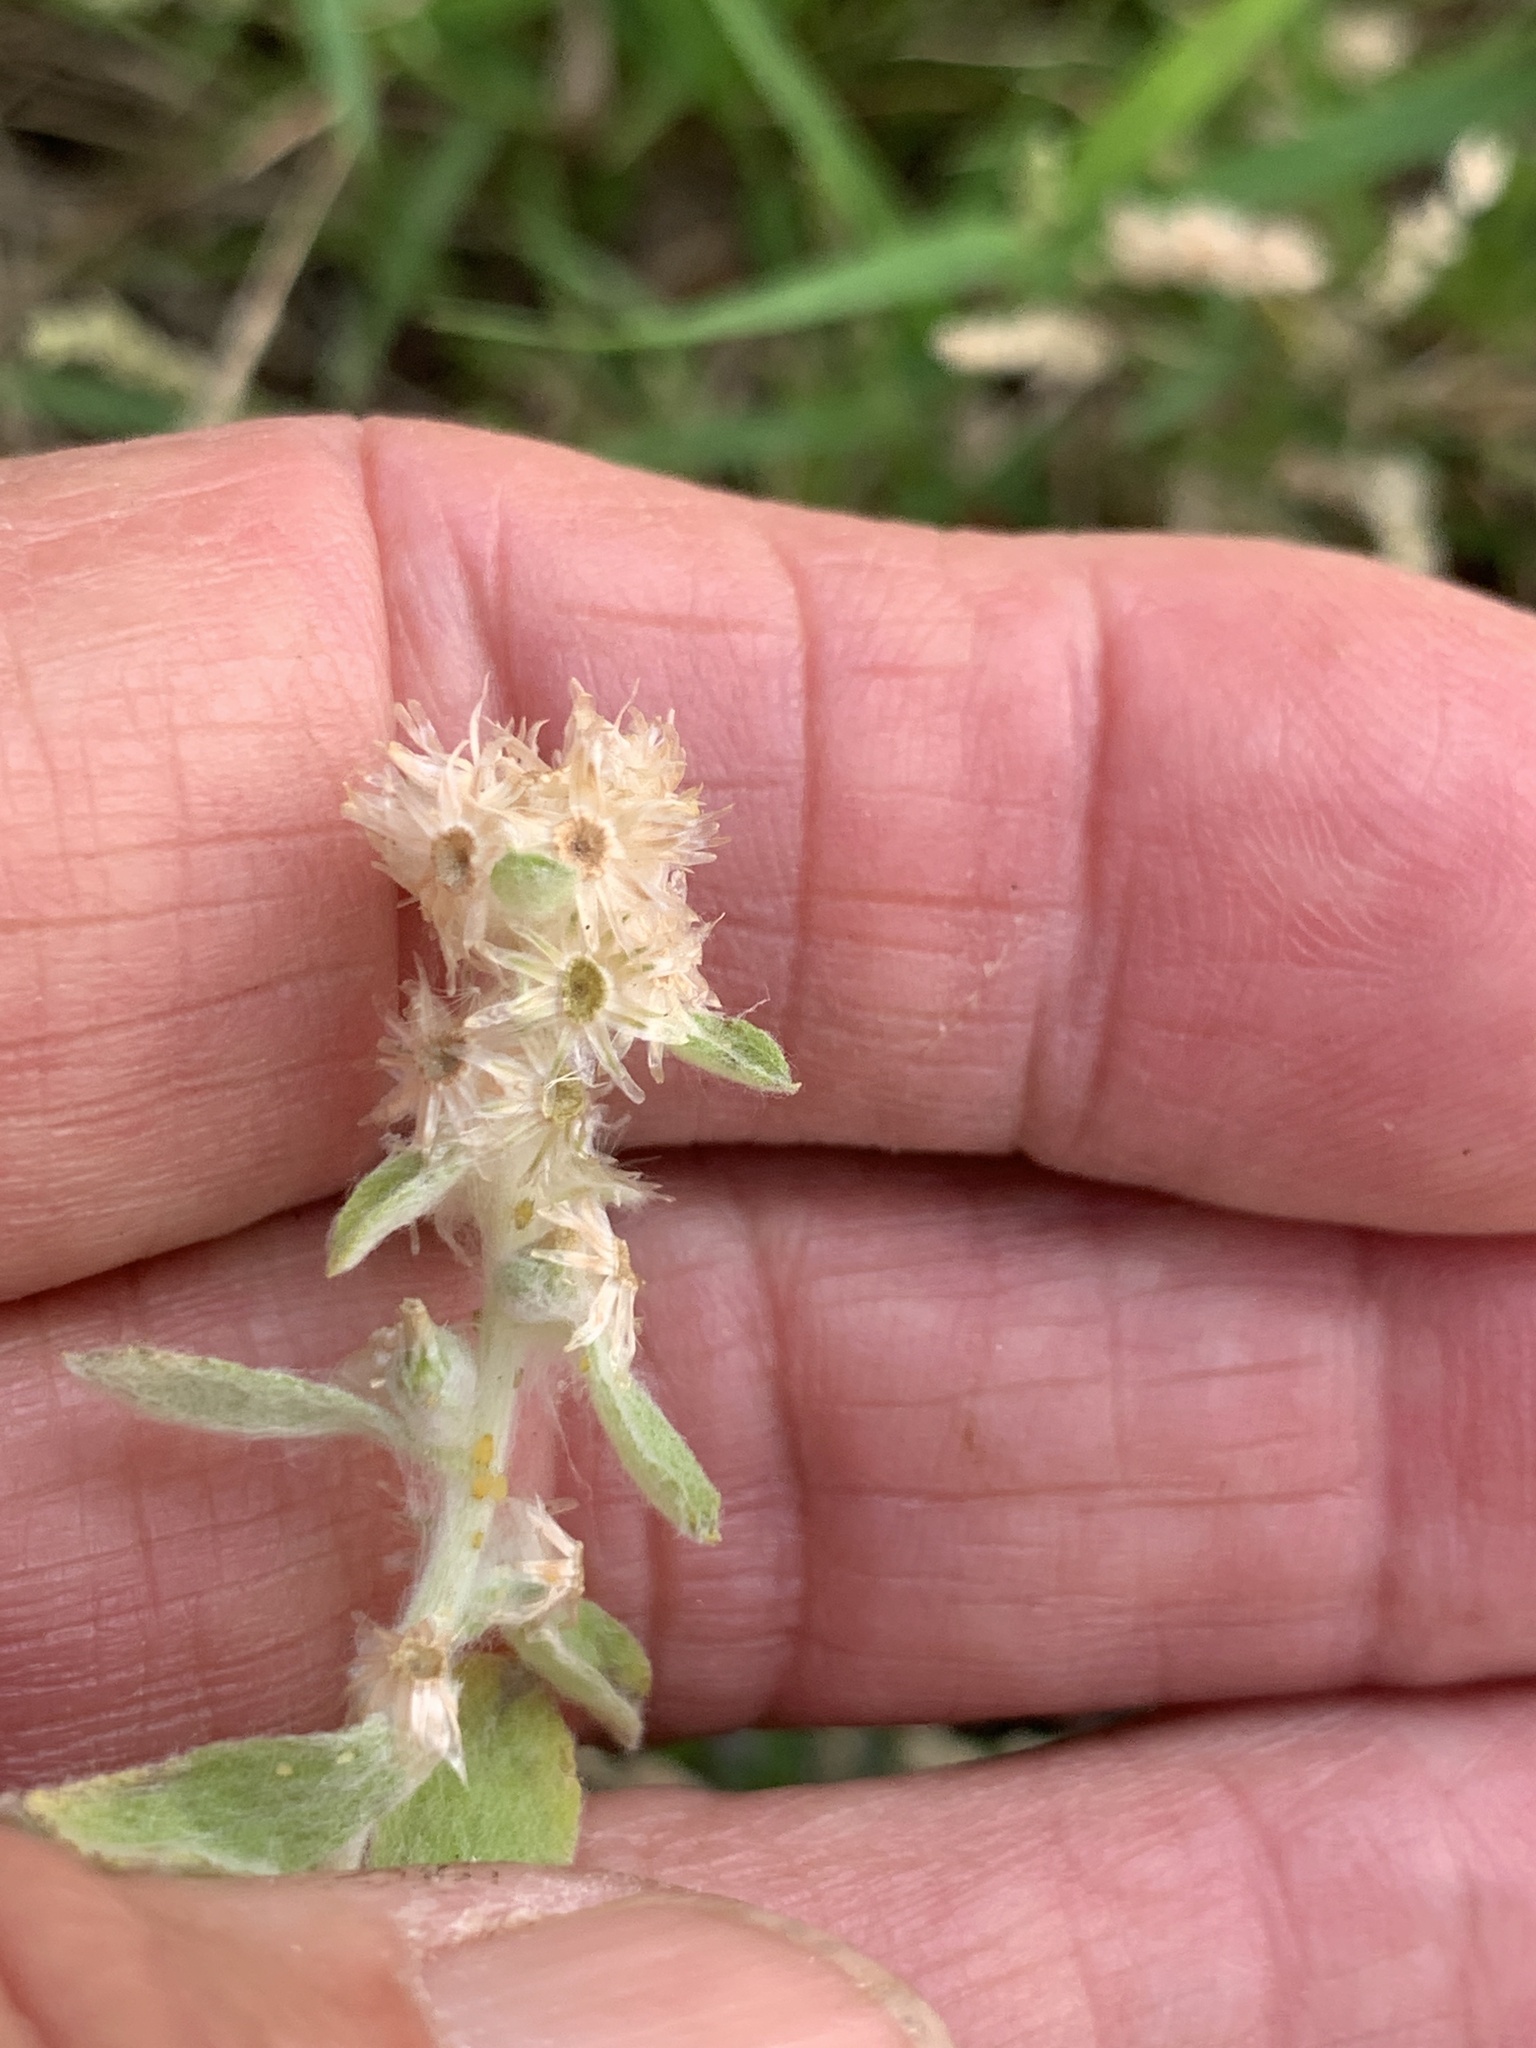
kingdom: Plantae
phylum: Tracheophyta
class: Magnoliopsida
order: Asterales
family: Asteraceae
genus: Gamochaeta
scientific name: Gamochaeta pensylvanica
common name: Pennsylvania everlasting
